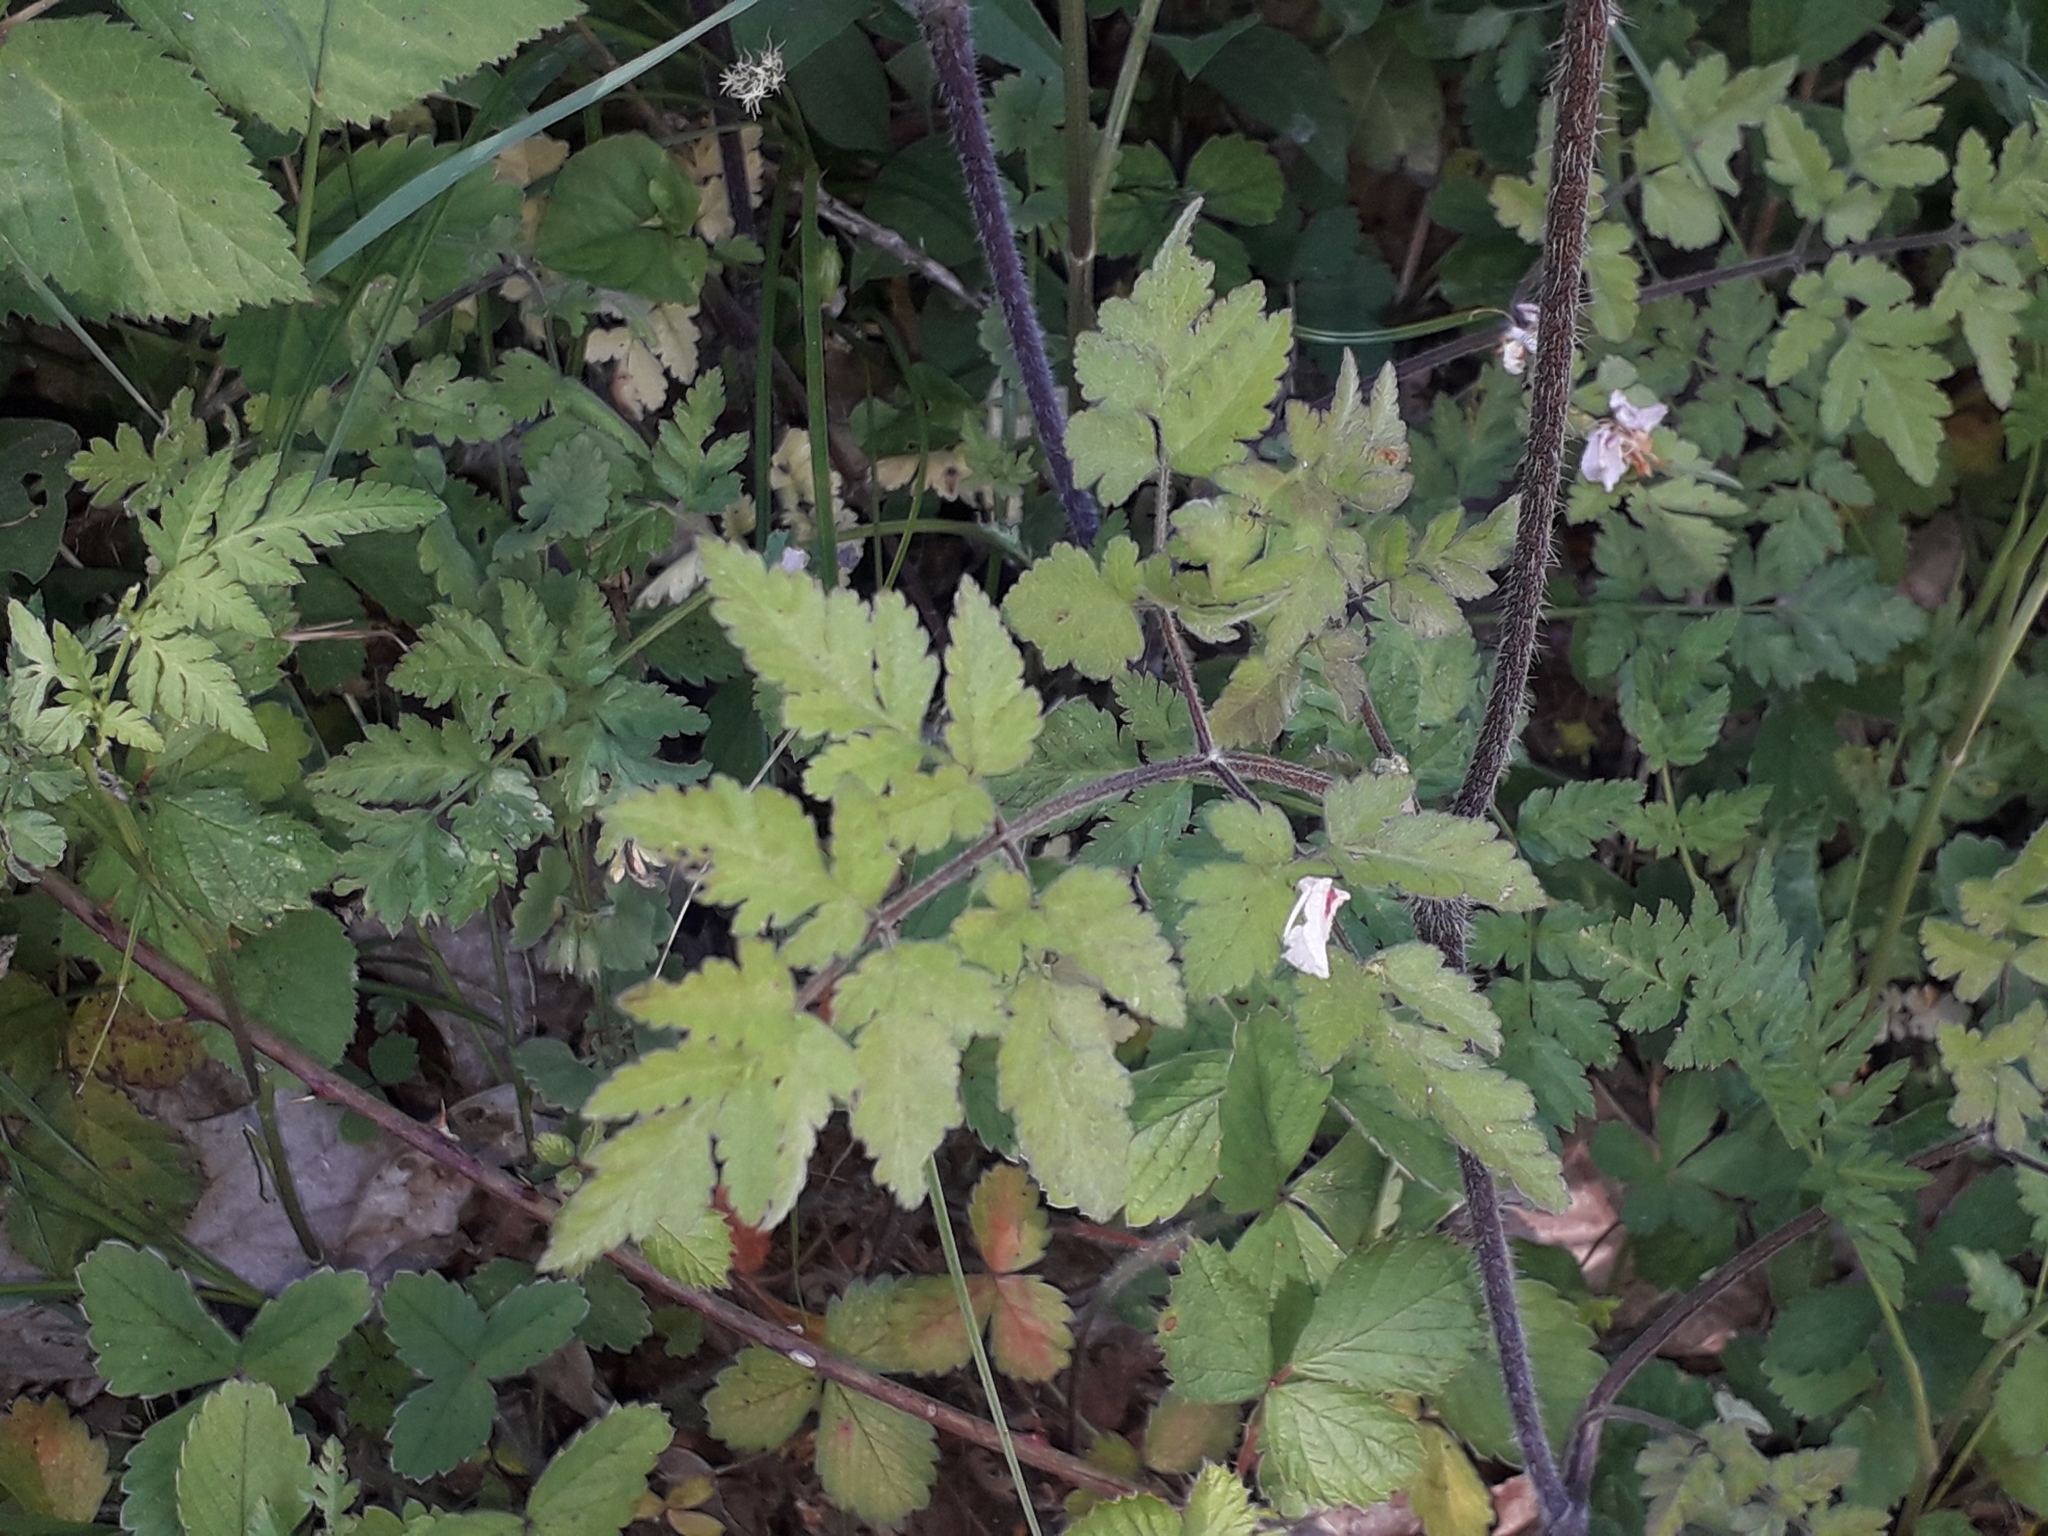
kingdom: Plantae
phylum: Tracheophyta
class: Magnoliopsida
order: Apiales
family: Apiaceae
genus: Chaerophyllum
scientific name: Chaerophyllum temulum
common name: Rough chervil
